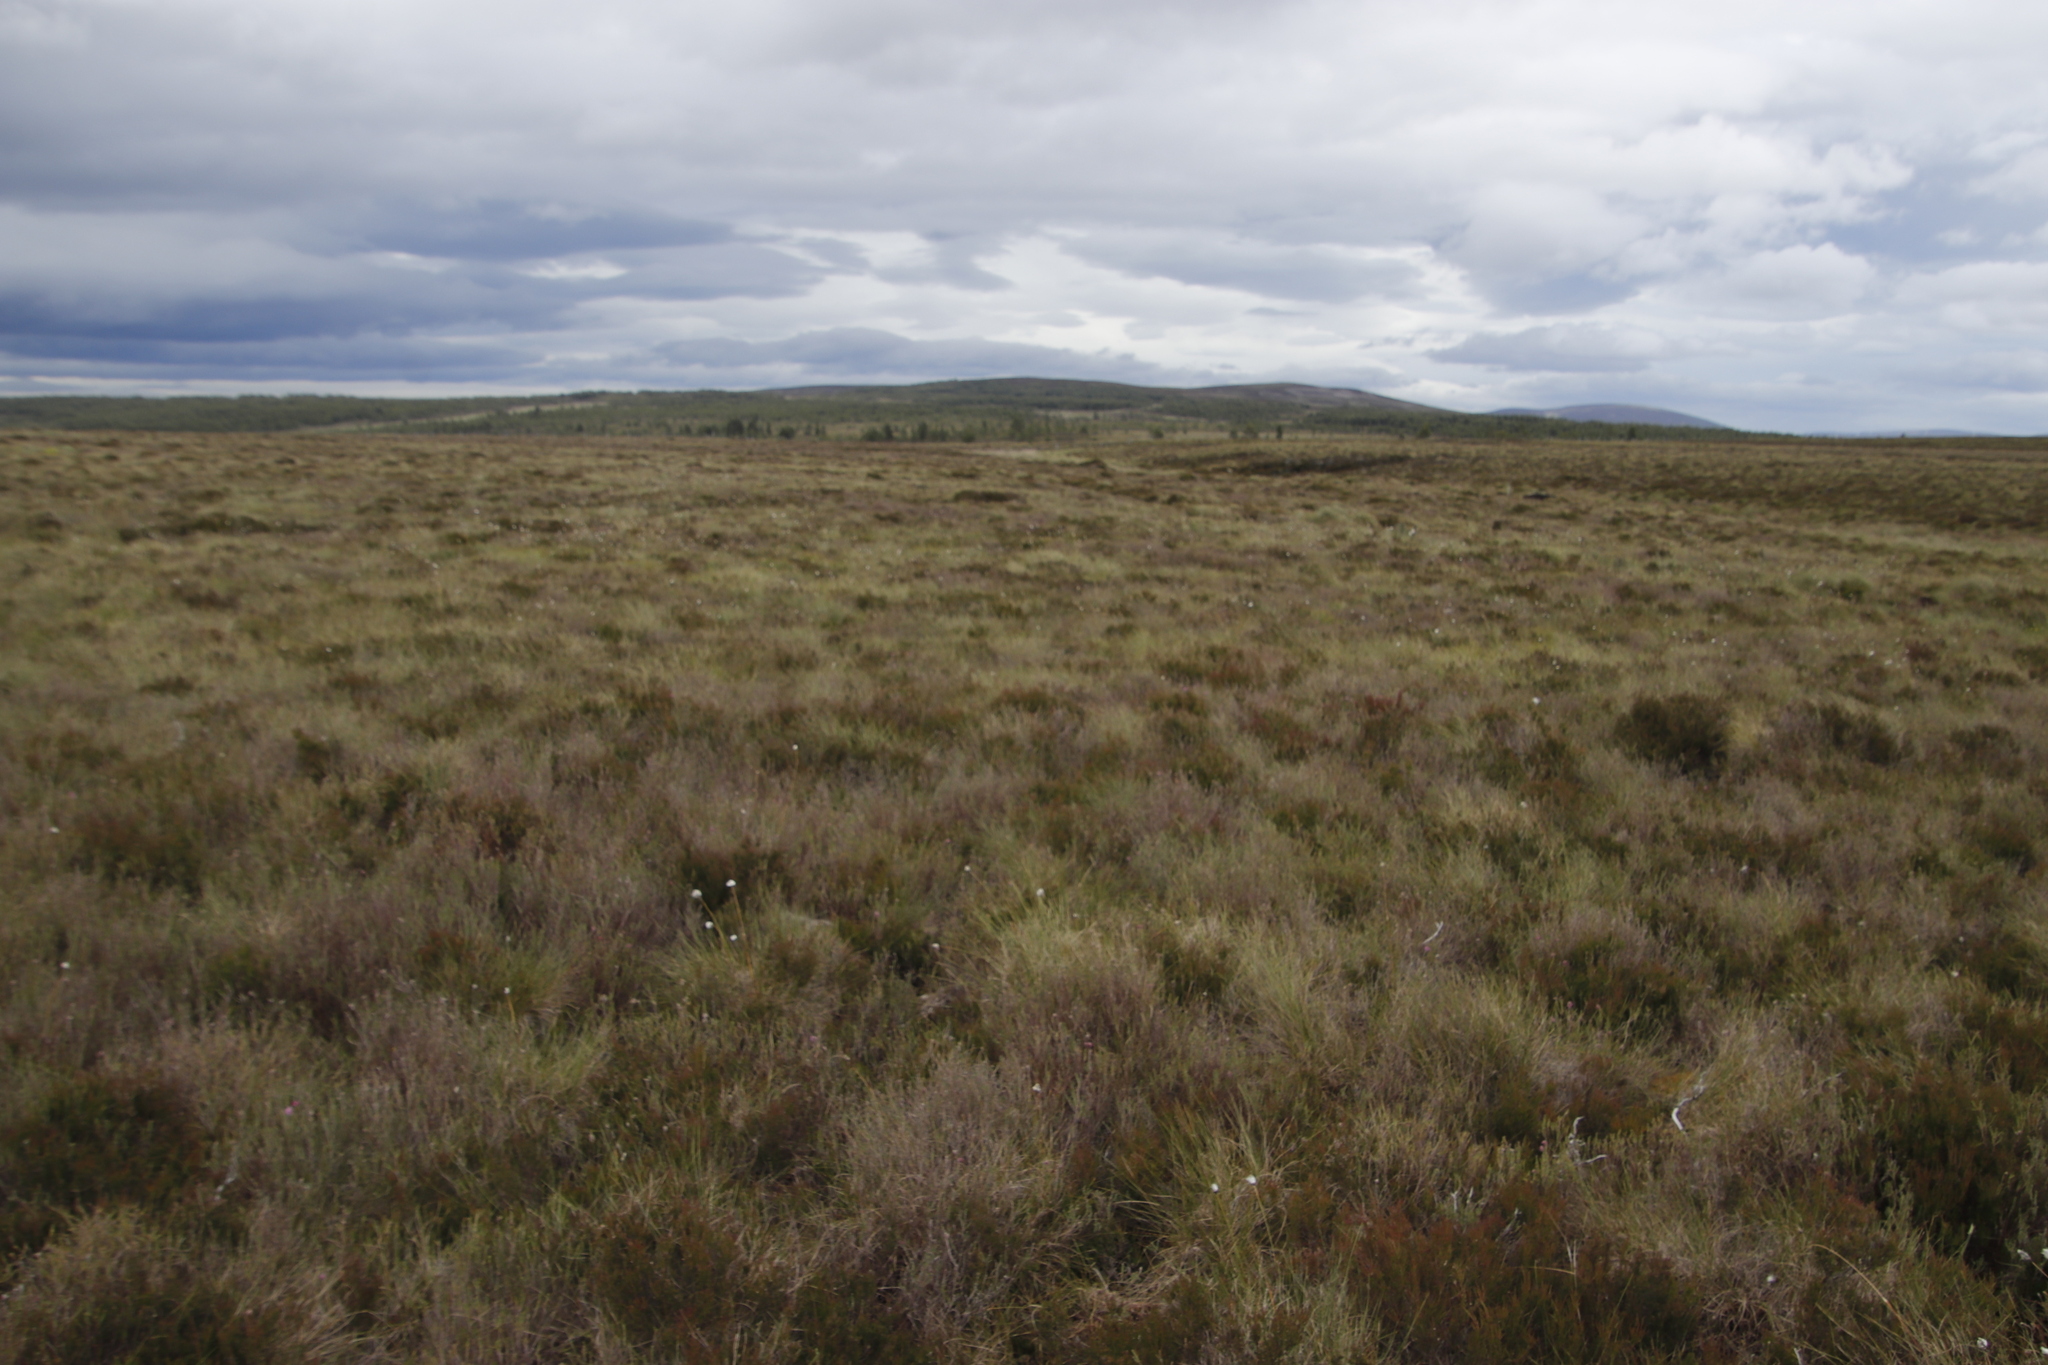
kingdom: Plantae
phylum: Tracheophyta
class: Liliopsida
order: Poales
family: Cyperaceae
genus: Eriophorum
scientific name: Eriophorum vaginatum
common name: Hare's-tail cottongrass
